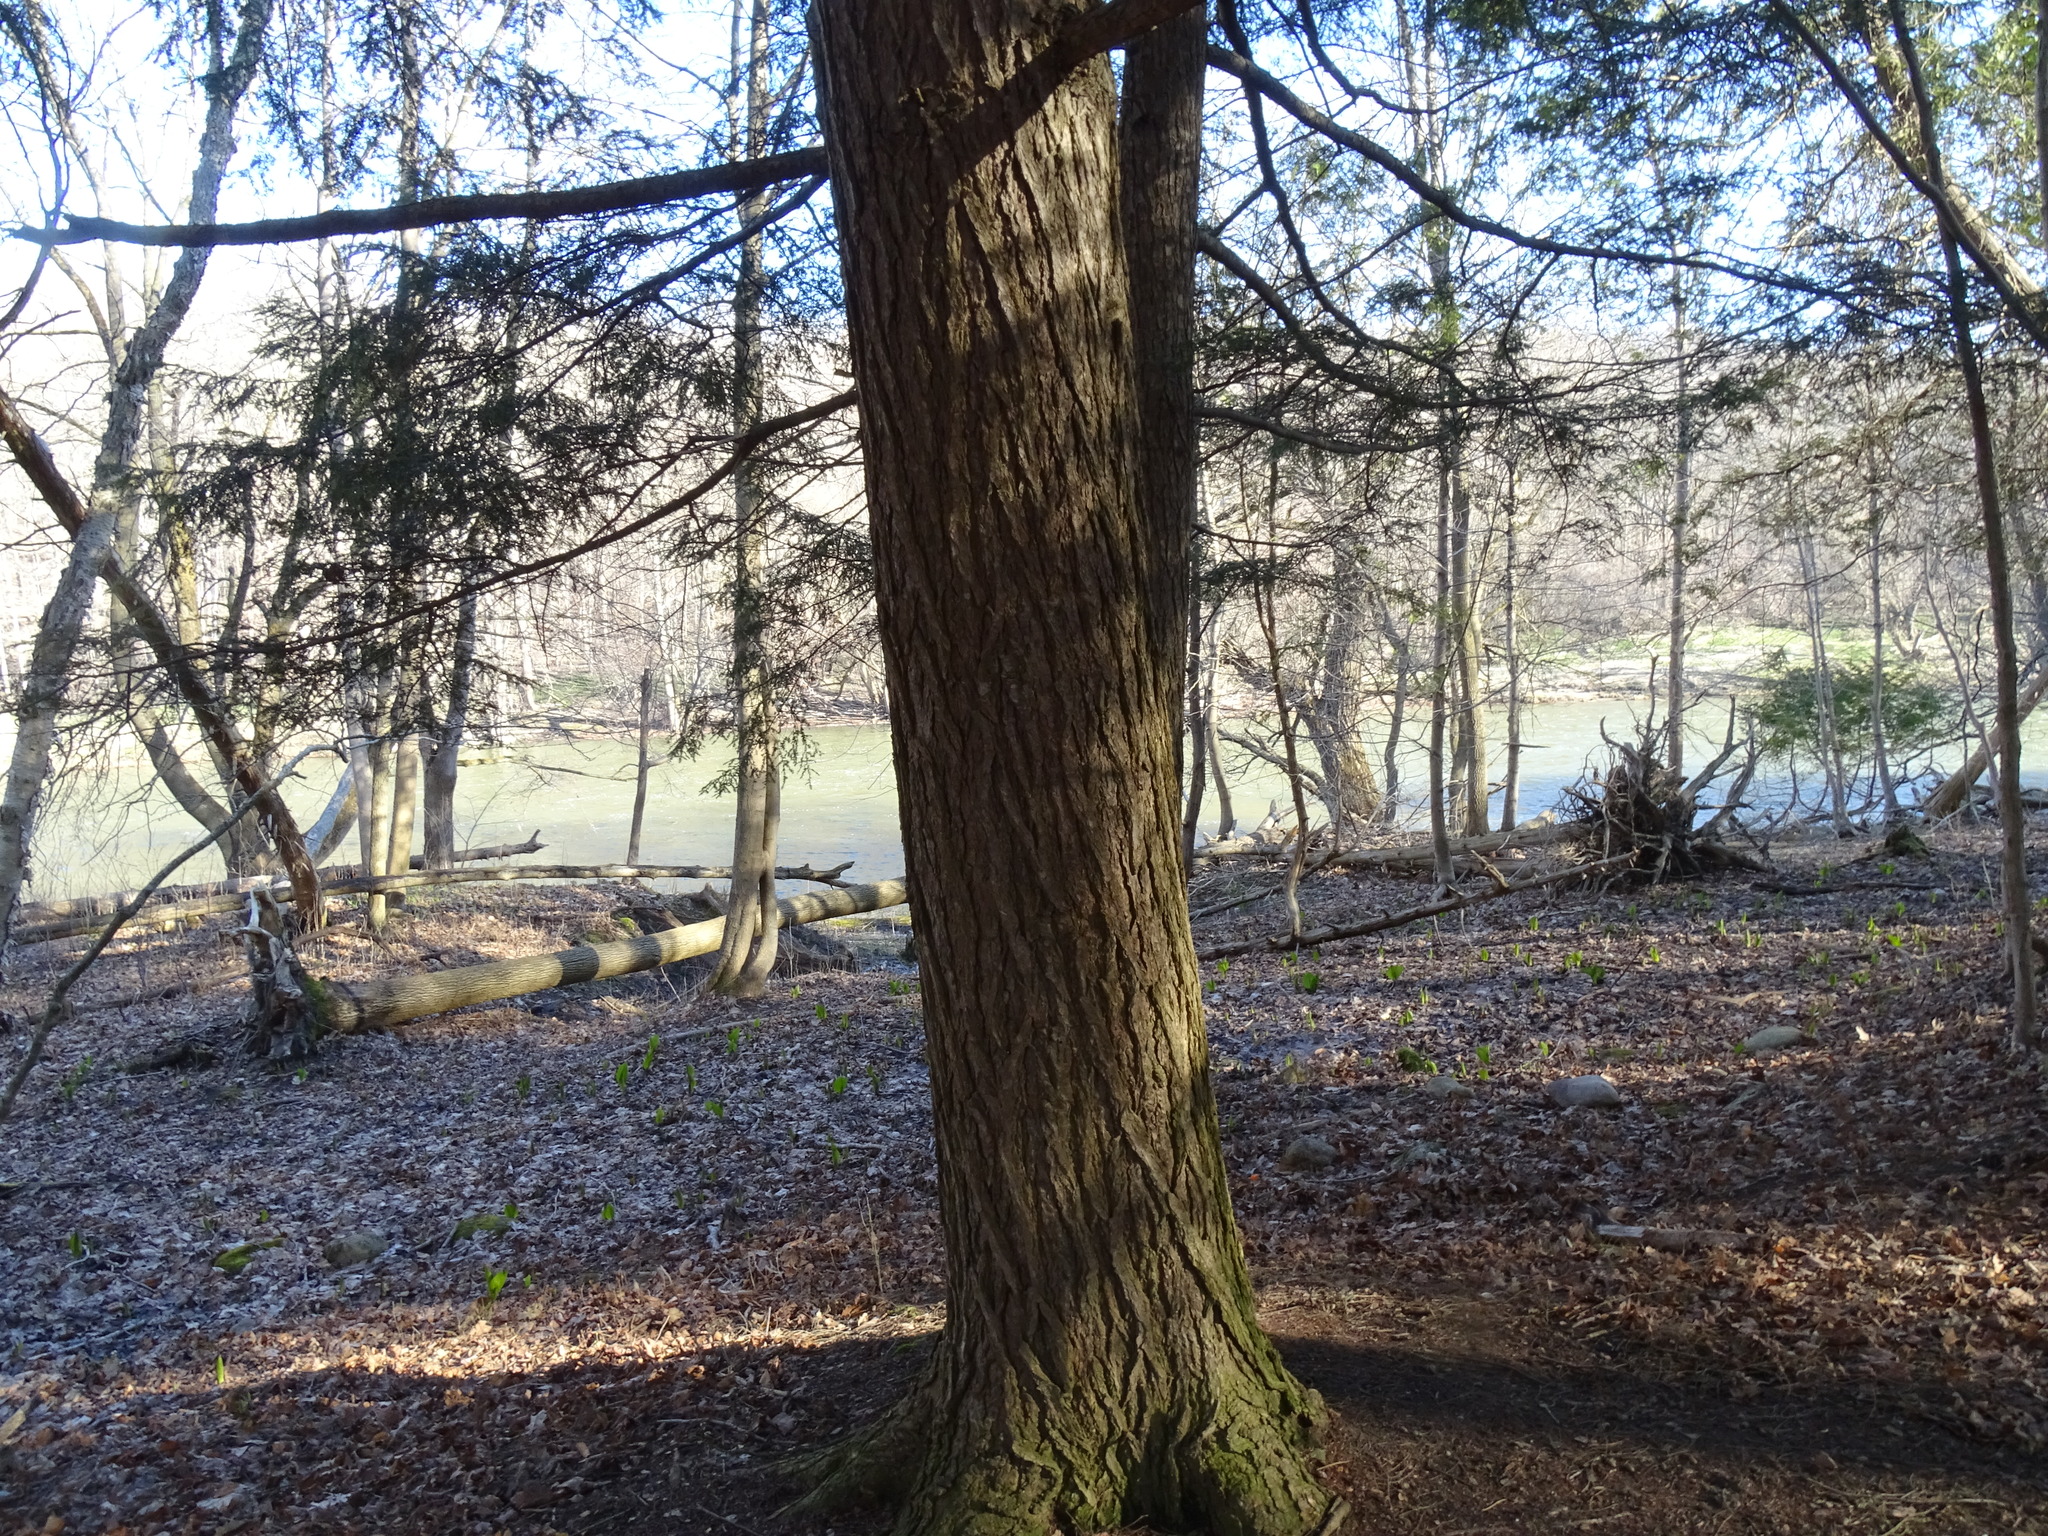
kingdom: Plantae
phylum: Tracheophyta
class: Pinopsida
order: Pinales
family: Pinaceae
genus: Tsuga
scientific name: Tsuga canadensis
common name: Eastern hemlock
